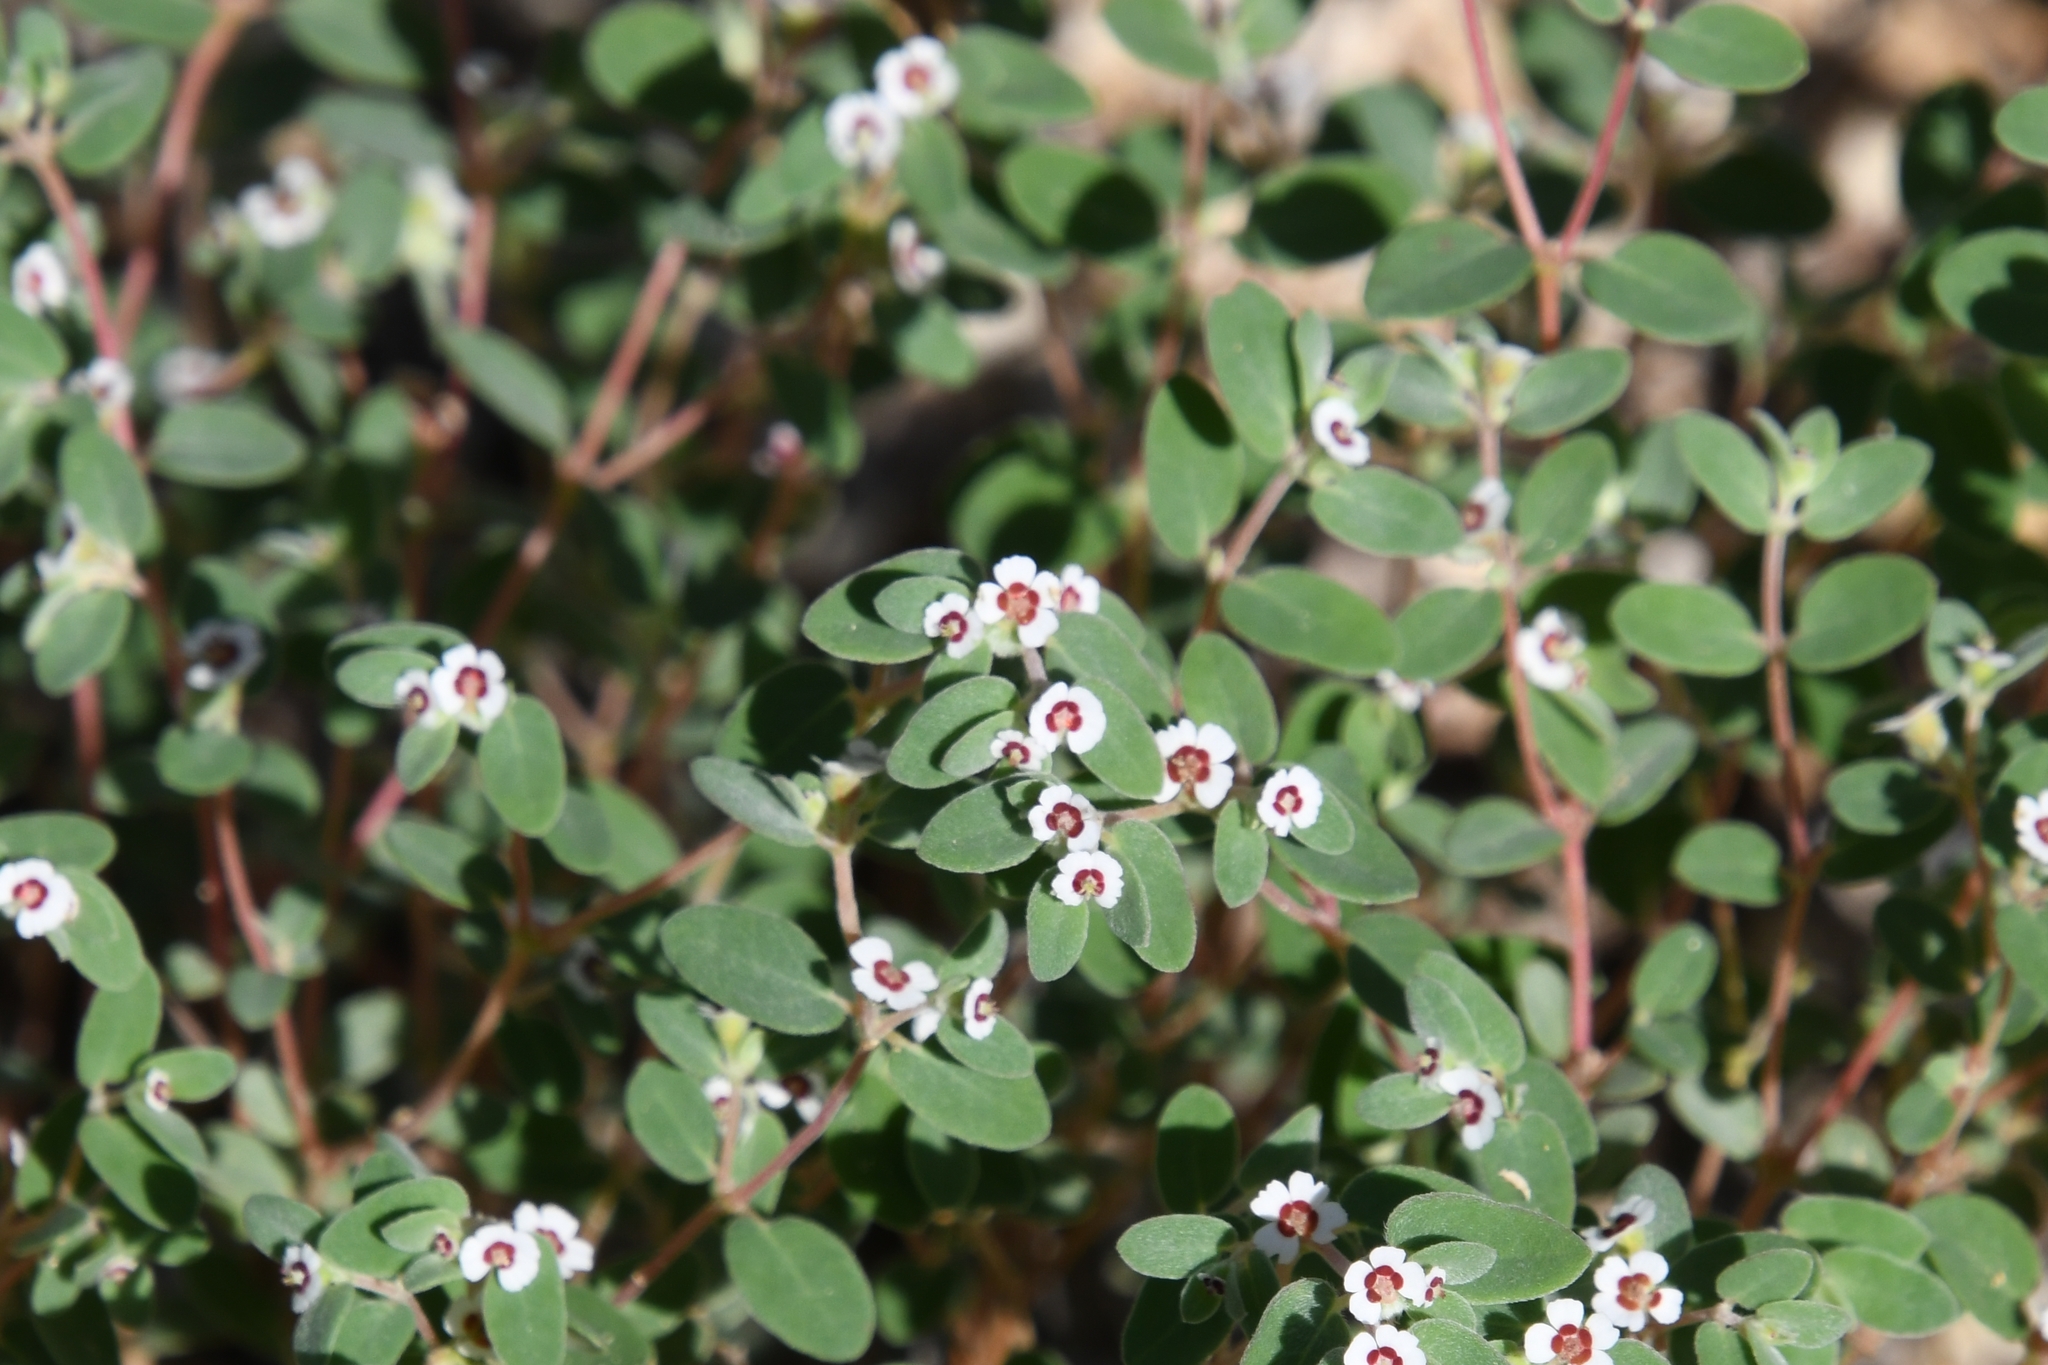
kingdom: Plantae
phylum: Tracheophyta
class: Magnoliopsida
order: Malpighiales
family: Euphorbiaceae
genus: Euphorbia
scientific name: Euphorbia melanadenia
